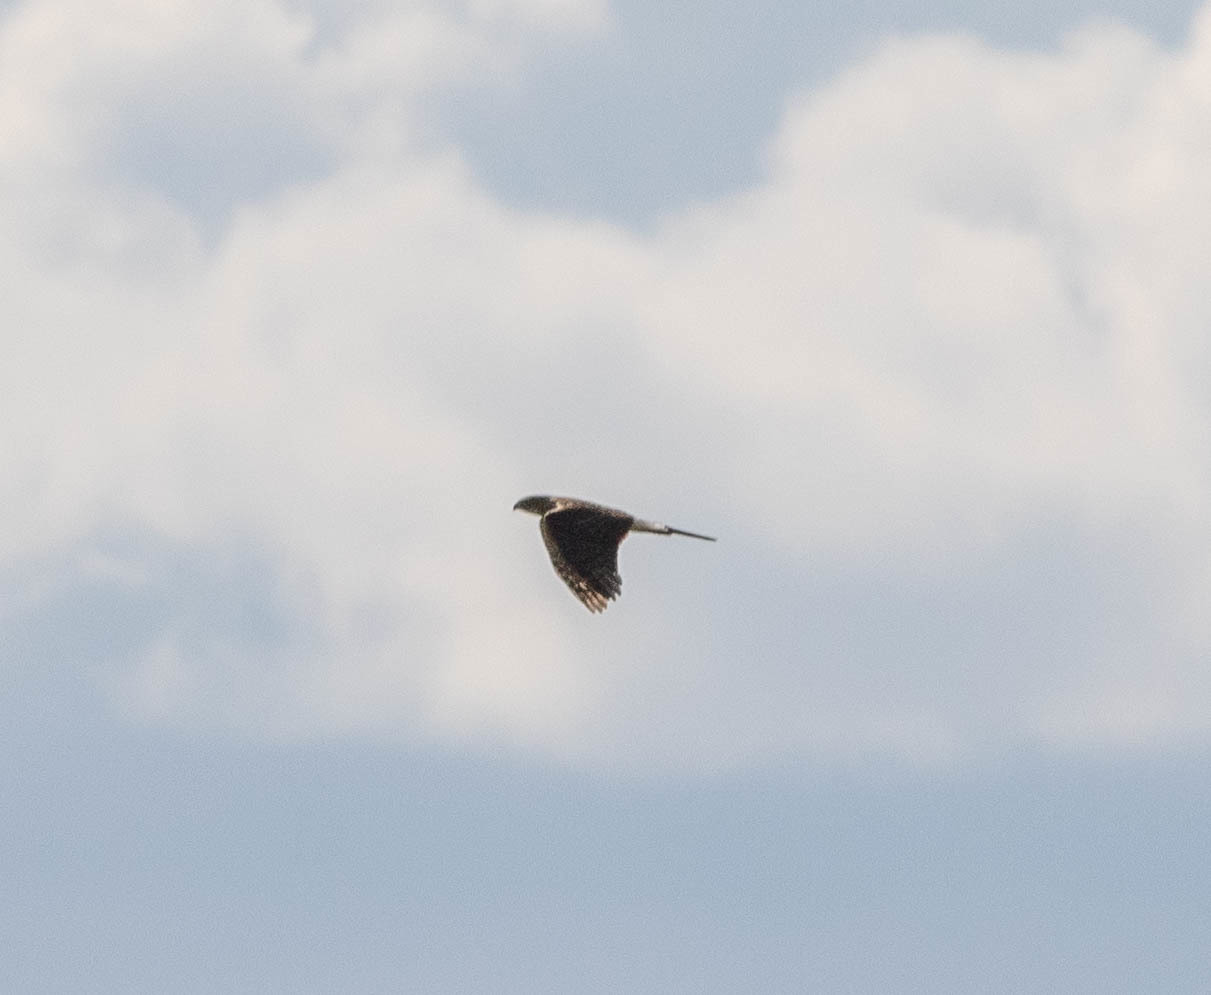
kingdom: Animalia
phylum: Chordata
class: Aves
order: Accipitriformes
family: Accipitridae
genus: Accipiter
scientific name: Accipiter cooperii
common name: Cooper's hawk
